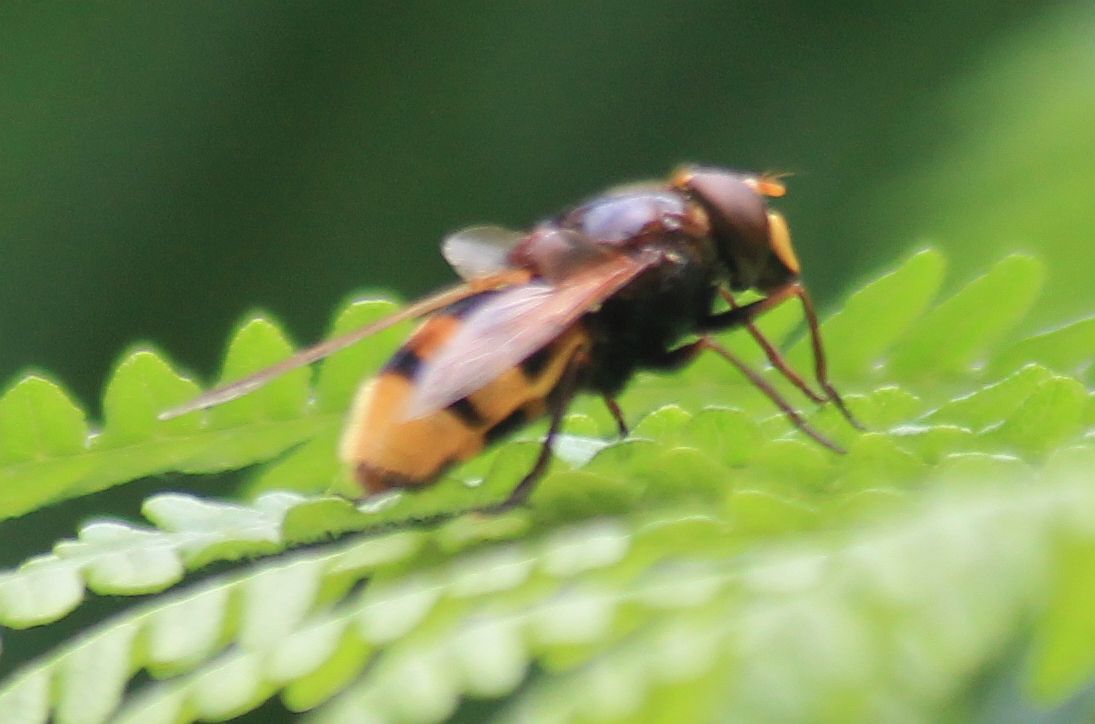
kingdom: Animalia
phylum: Arthropoda
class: Insecta
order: Diptera
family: Syrphidae
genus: Volucella
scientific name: Volucella zonaria
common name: Hornet hoverfly
